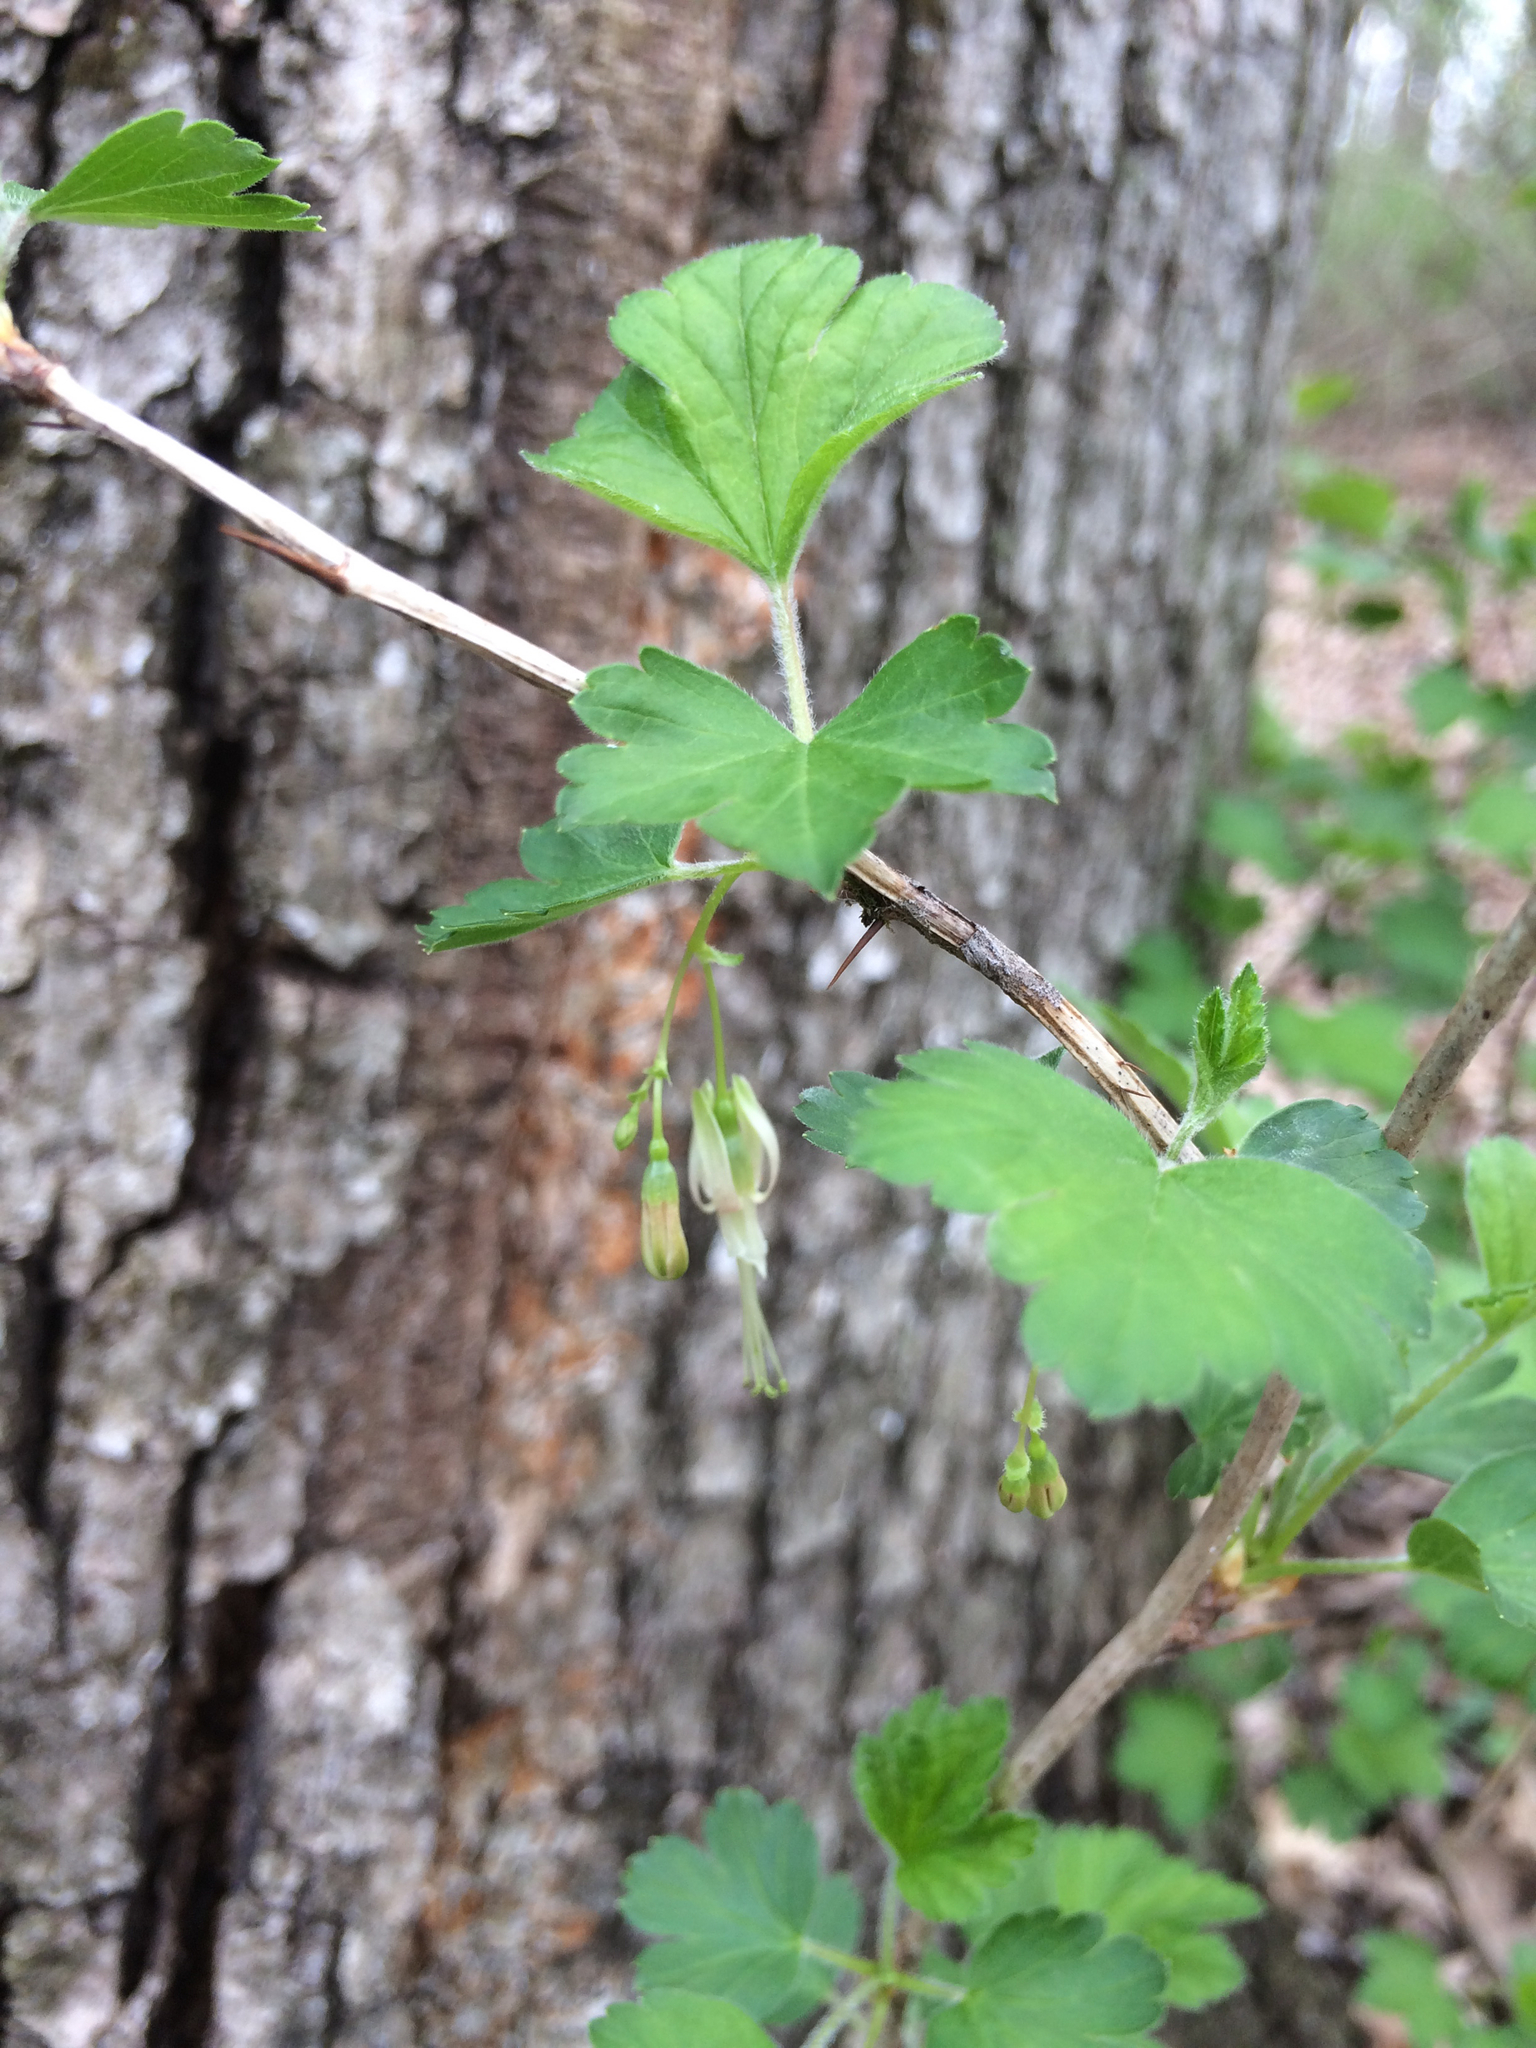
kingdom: Plantae
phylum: Tracheophyta
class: Magnoliopsida
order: Saxifragales
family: Grossulariaceae
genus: Ribes
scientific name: Ribes missouriense
